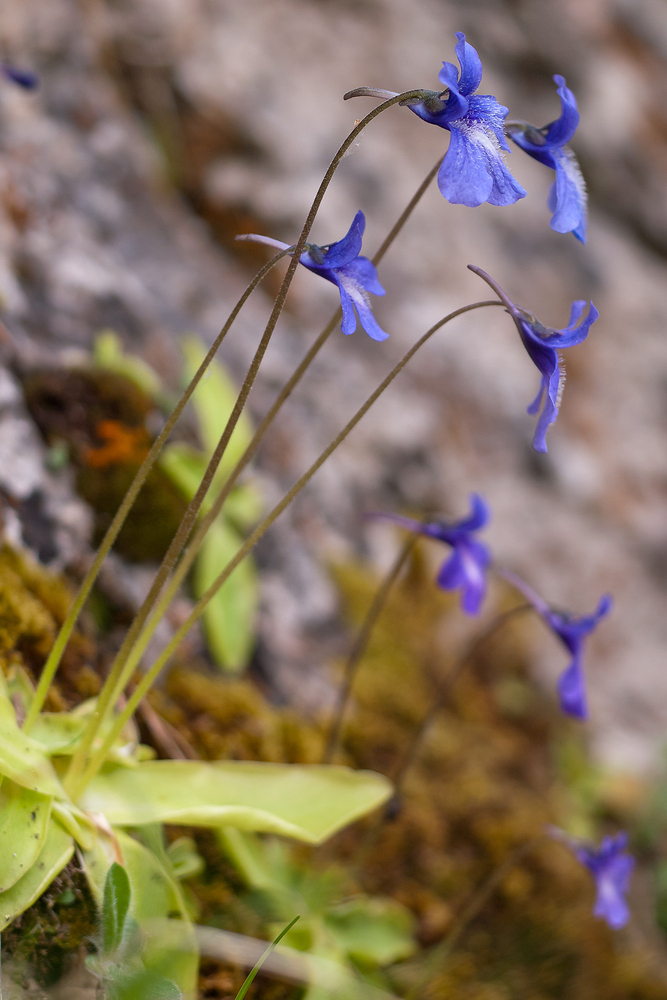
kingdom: Plantae
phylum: Tracheophyta
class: Magnoliopsida
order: Lamiales
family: Lentibulariaceae
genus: Pinguicula
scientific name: Pinguicula caussensis
